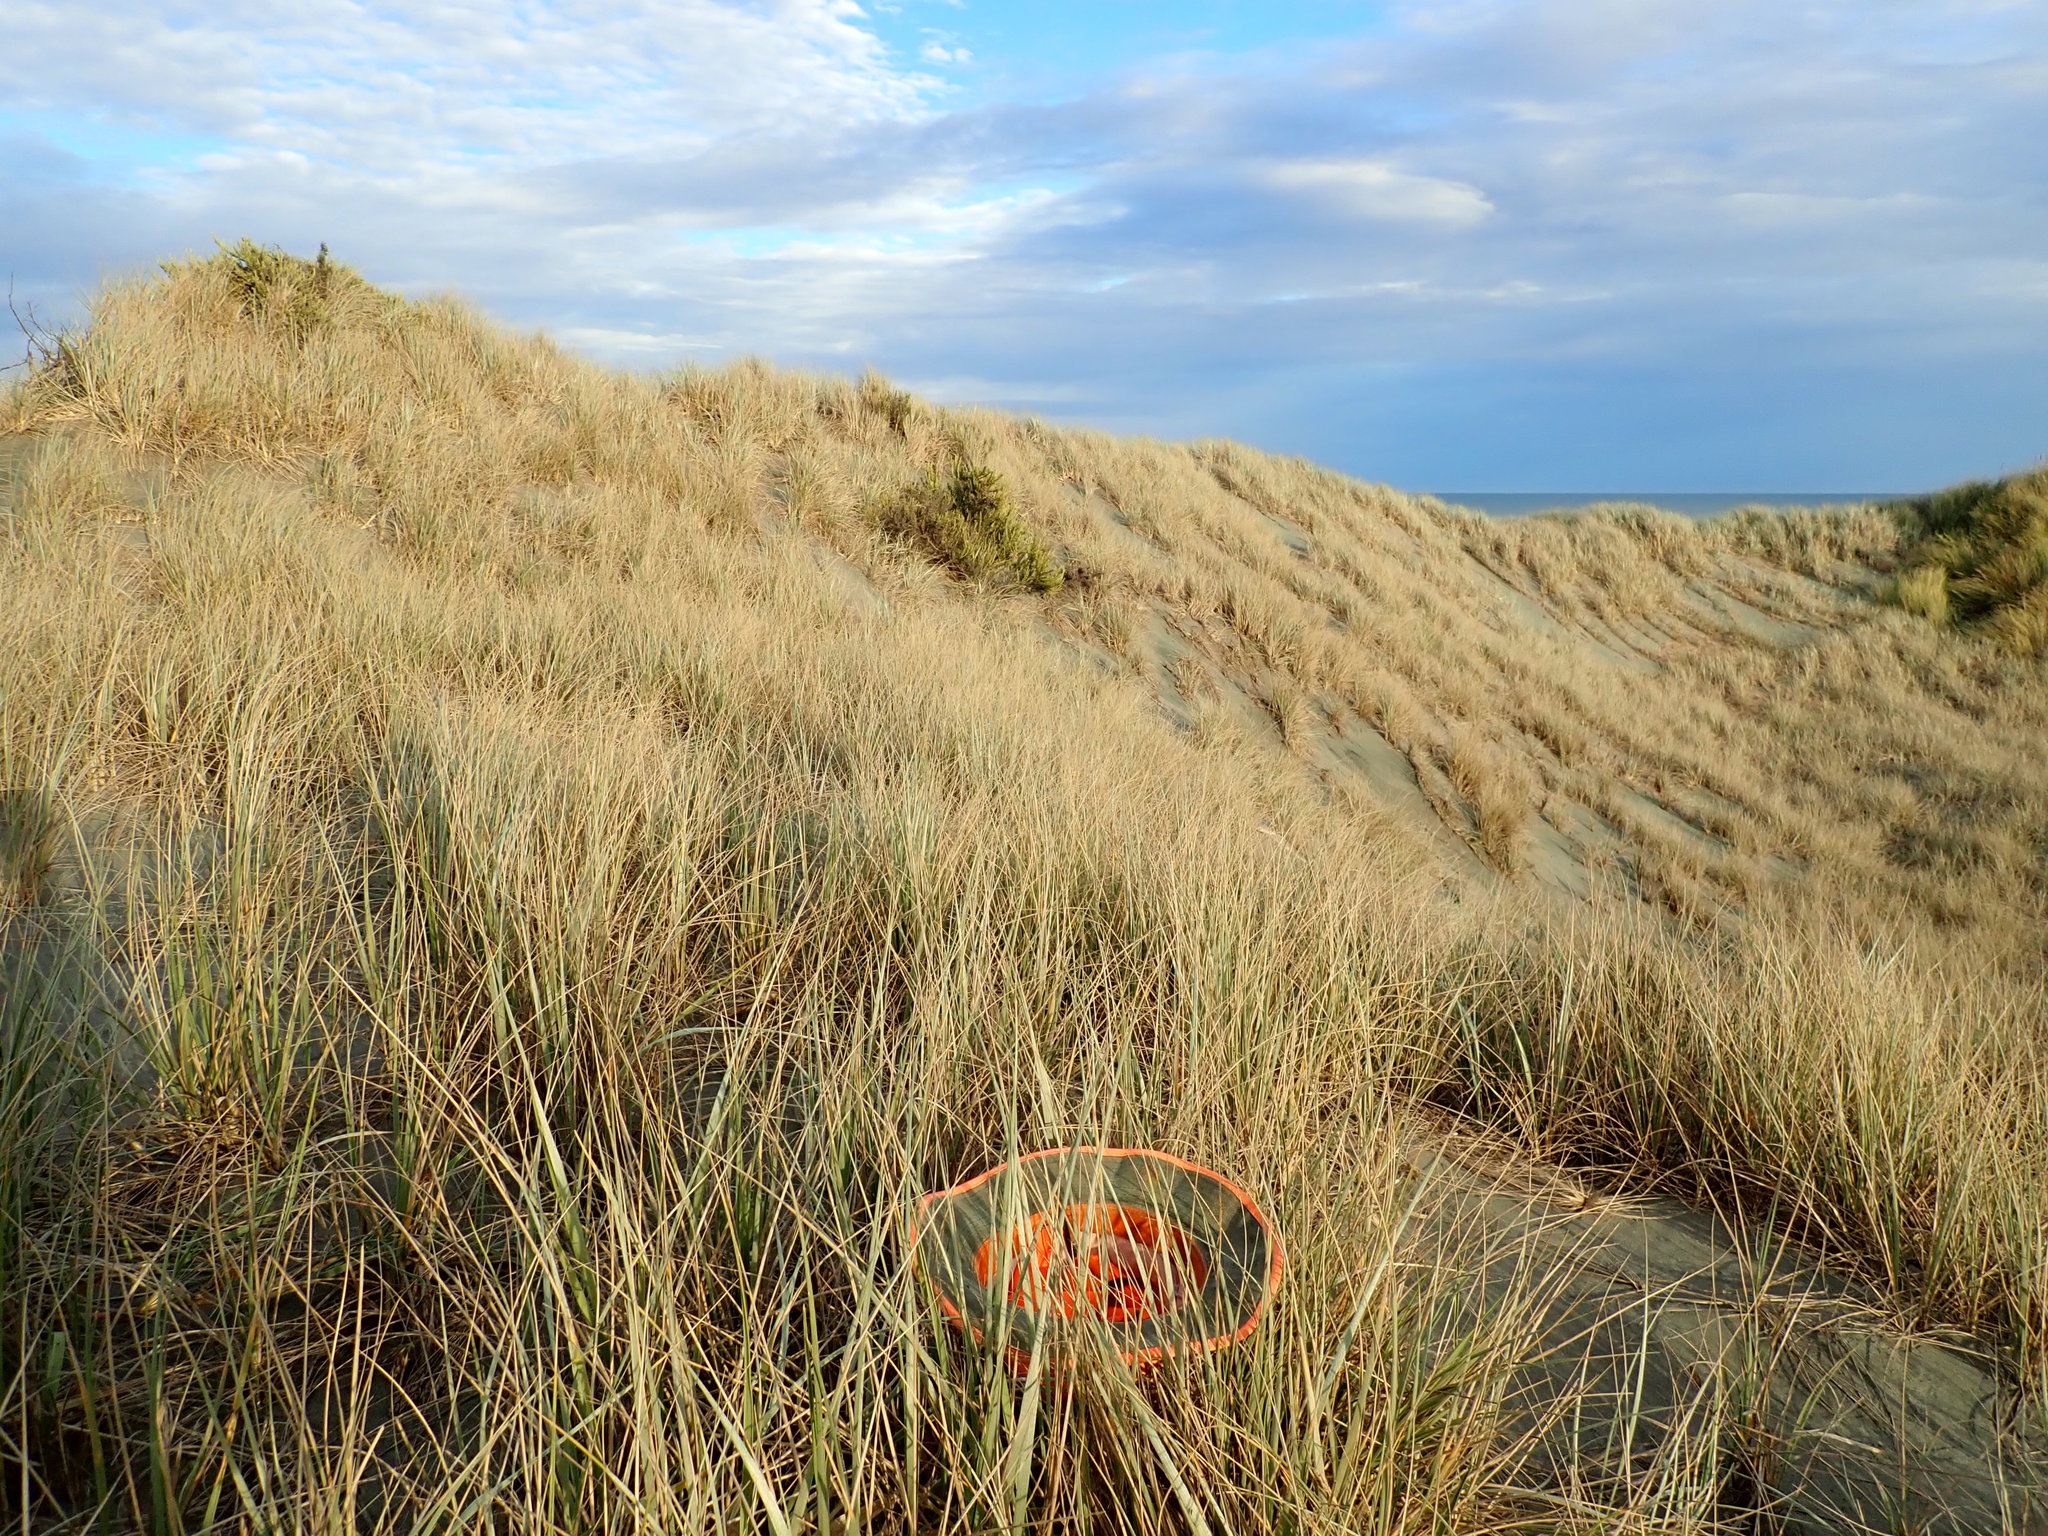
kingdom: Plantae
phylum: Tracheophyta
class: Magnoliopsida
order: Asterales
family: Asteraceae
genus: Ozothamnus
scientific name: Ozothamnus leptophyllus
